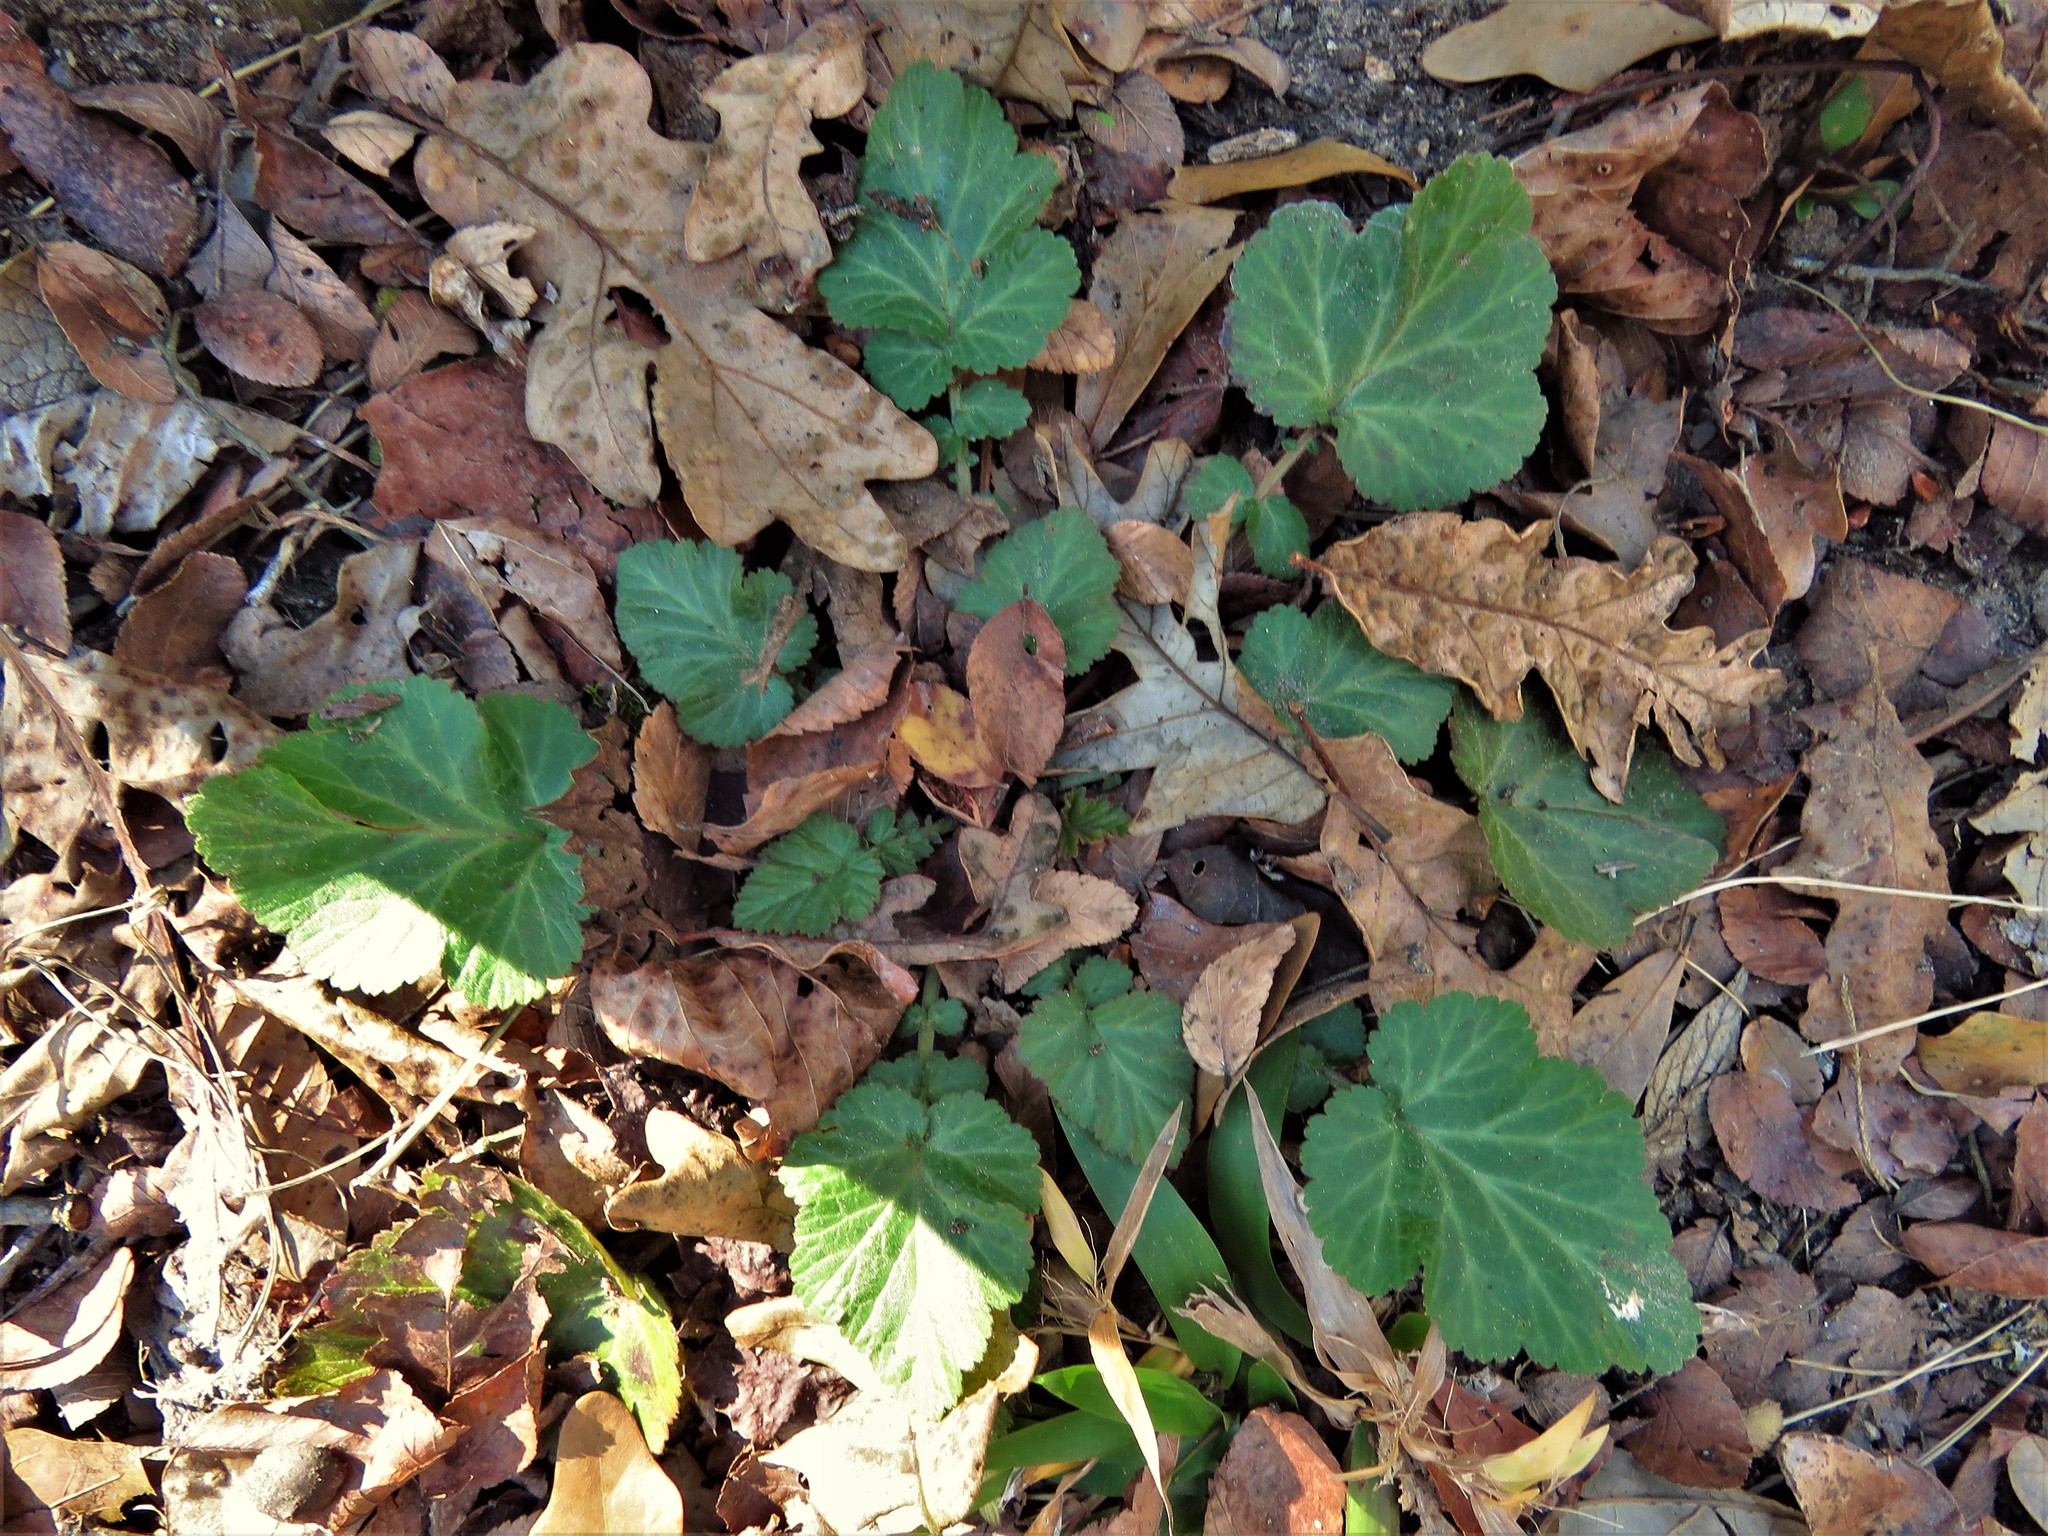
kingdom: Plantae
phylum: Tracheophyta
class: Magnoliopsida
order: Rosales
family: Rosaceae
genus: Geum
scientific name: Geum canadense
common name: White avens
